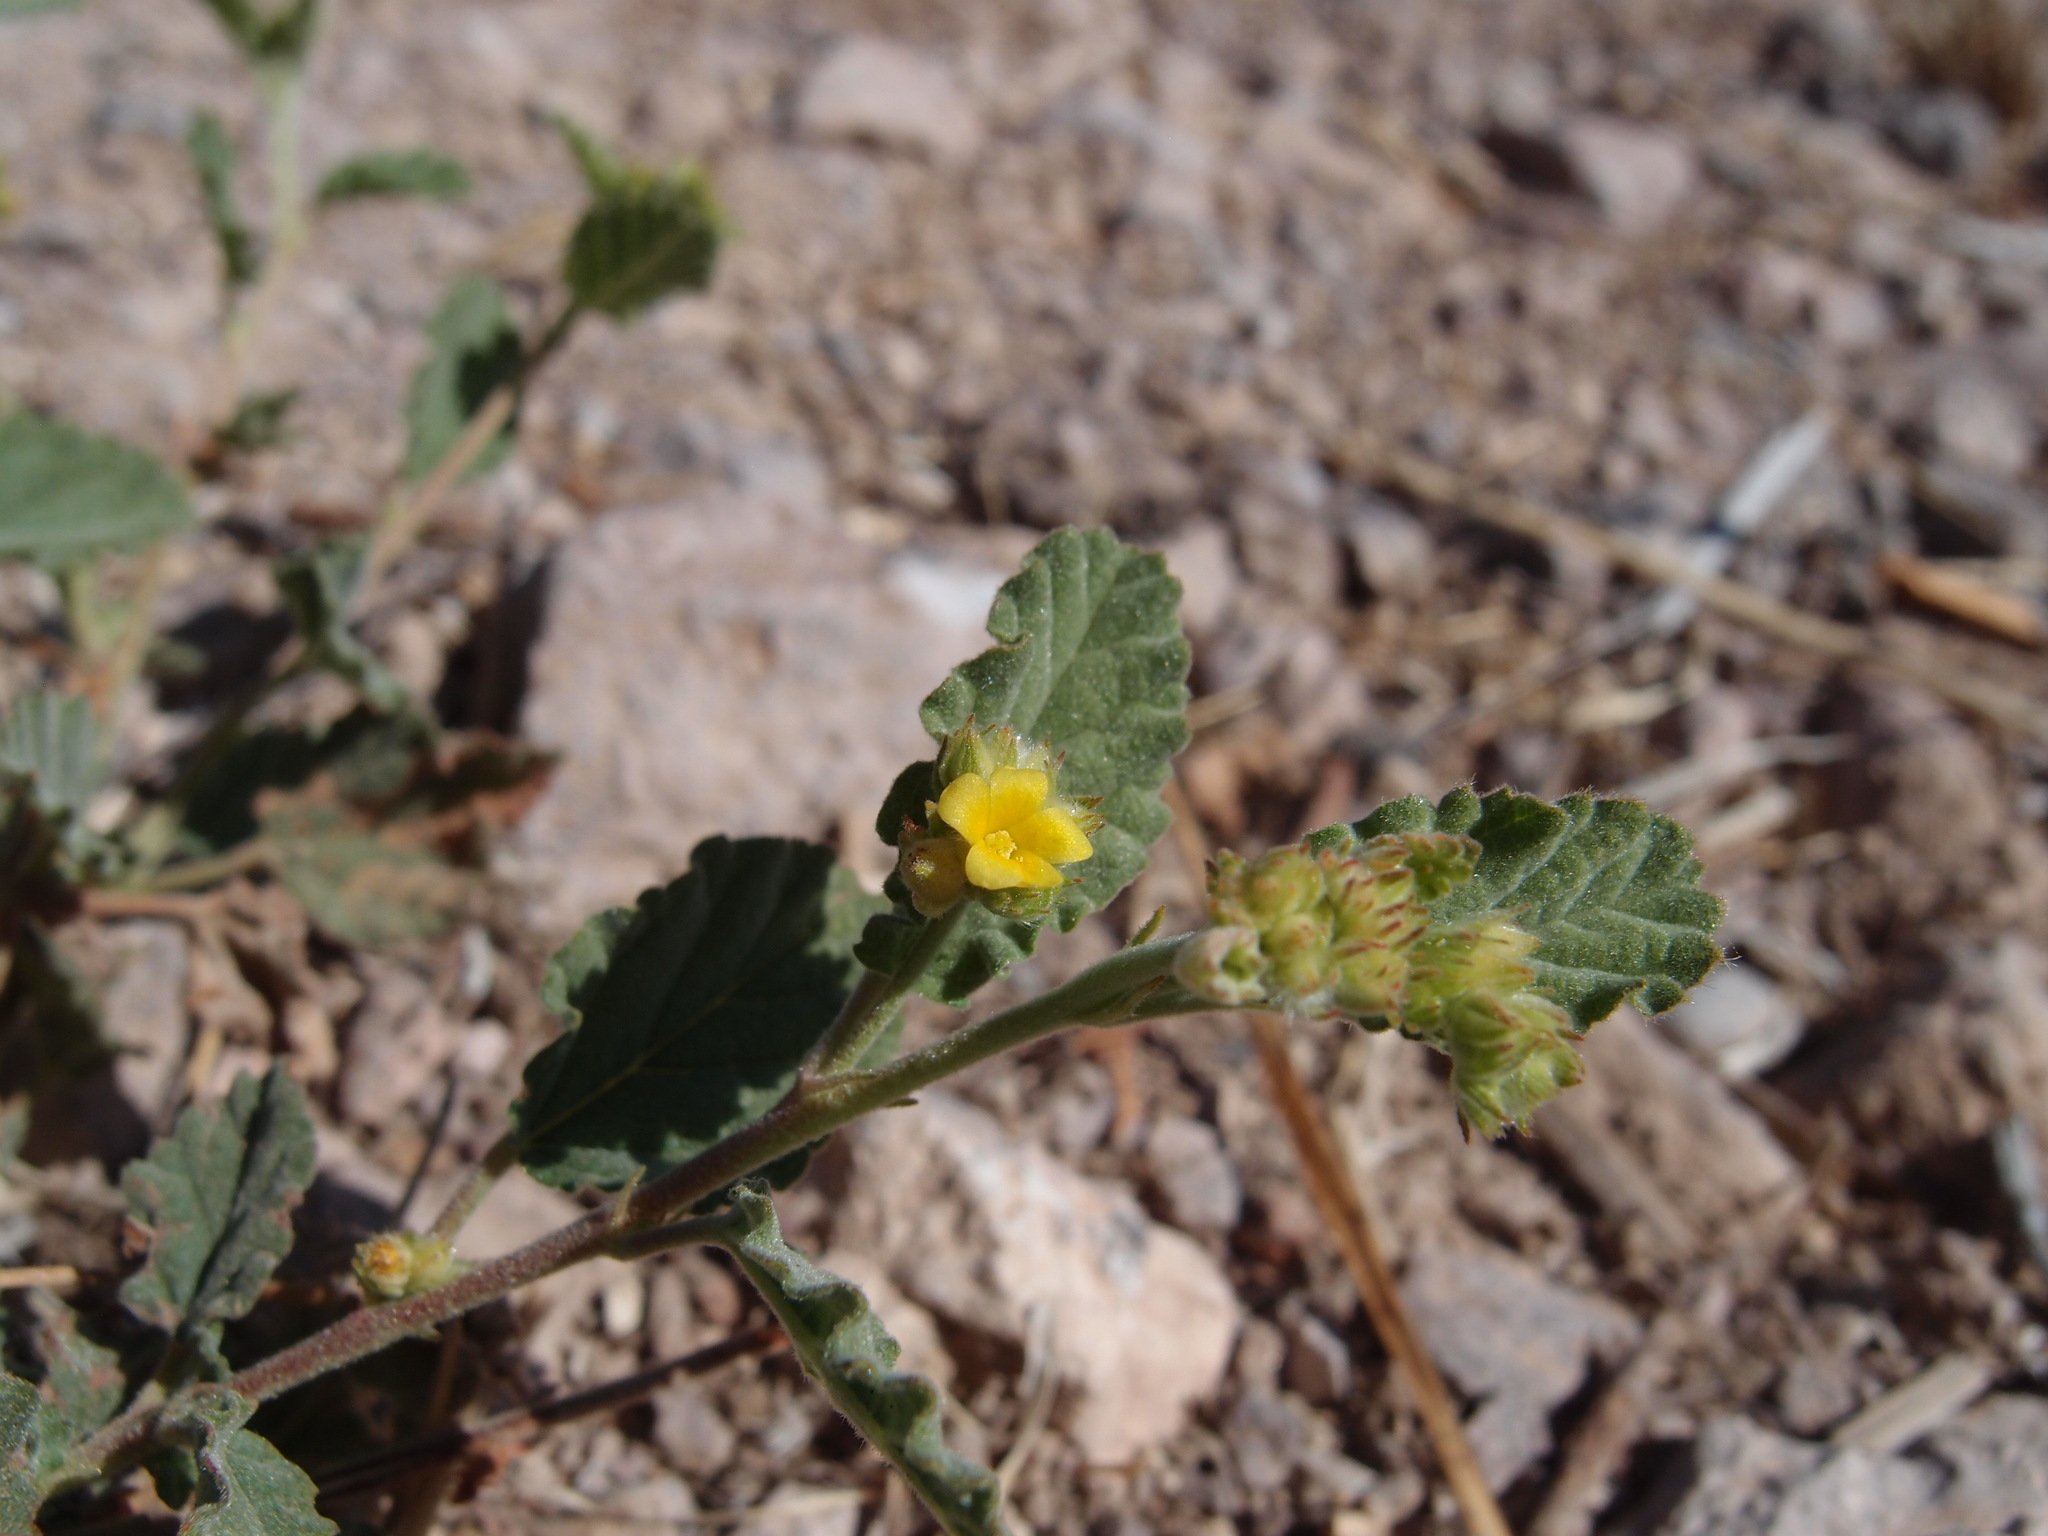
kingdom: Plantae
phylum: Tracheophyta
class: Magnoliopsida
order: Malvales
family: Malvaceae
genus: Waltheria
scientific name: Waltheria indica
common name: Leather-coat
